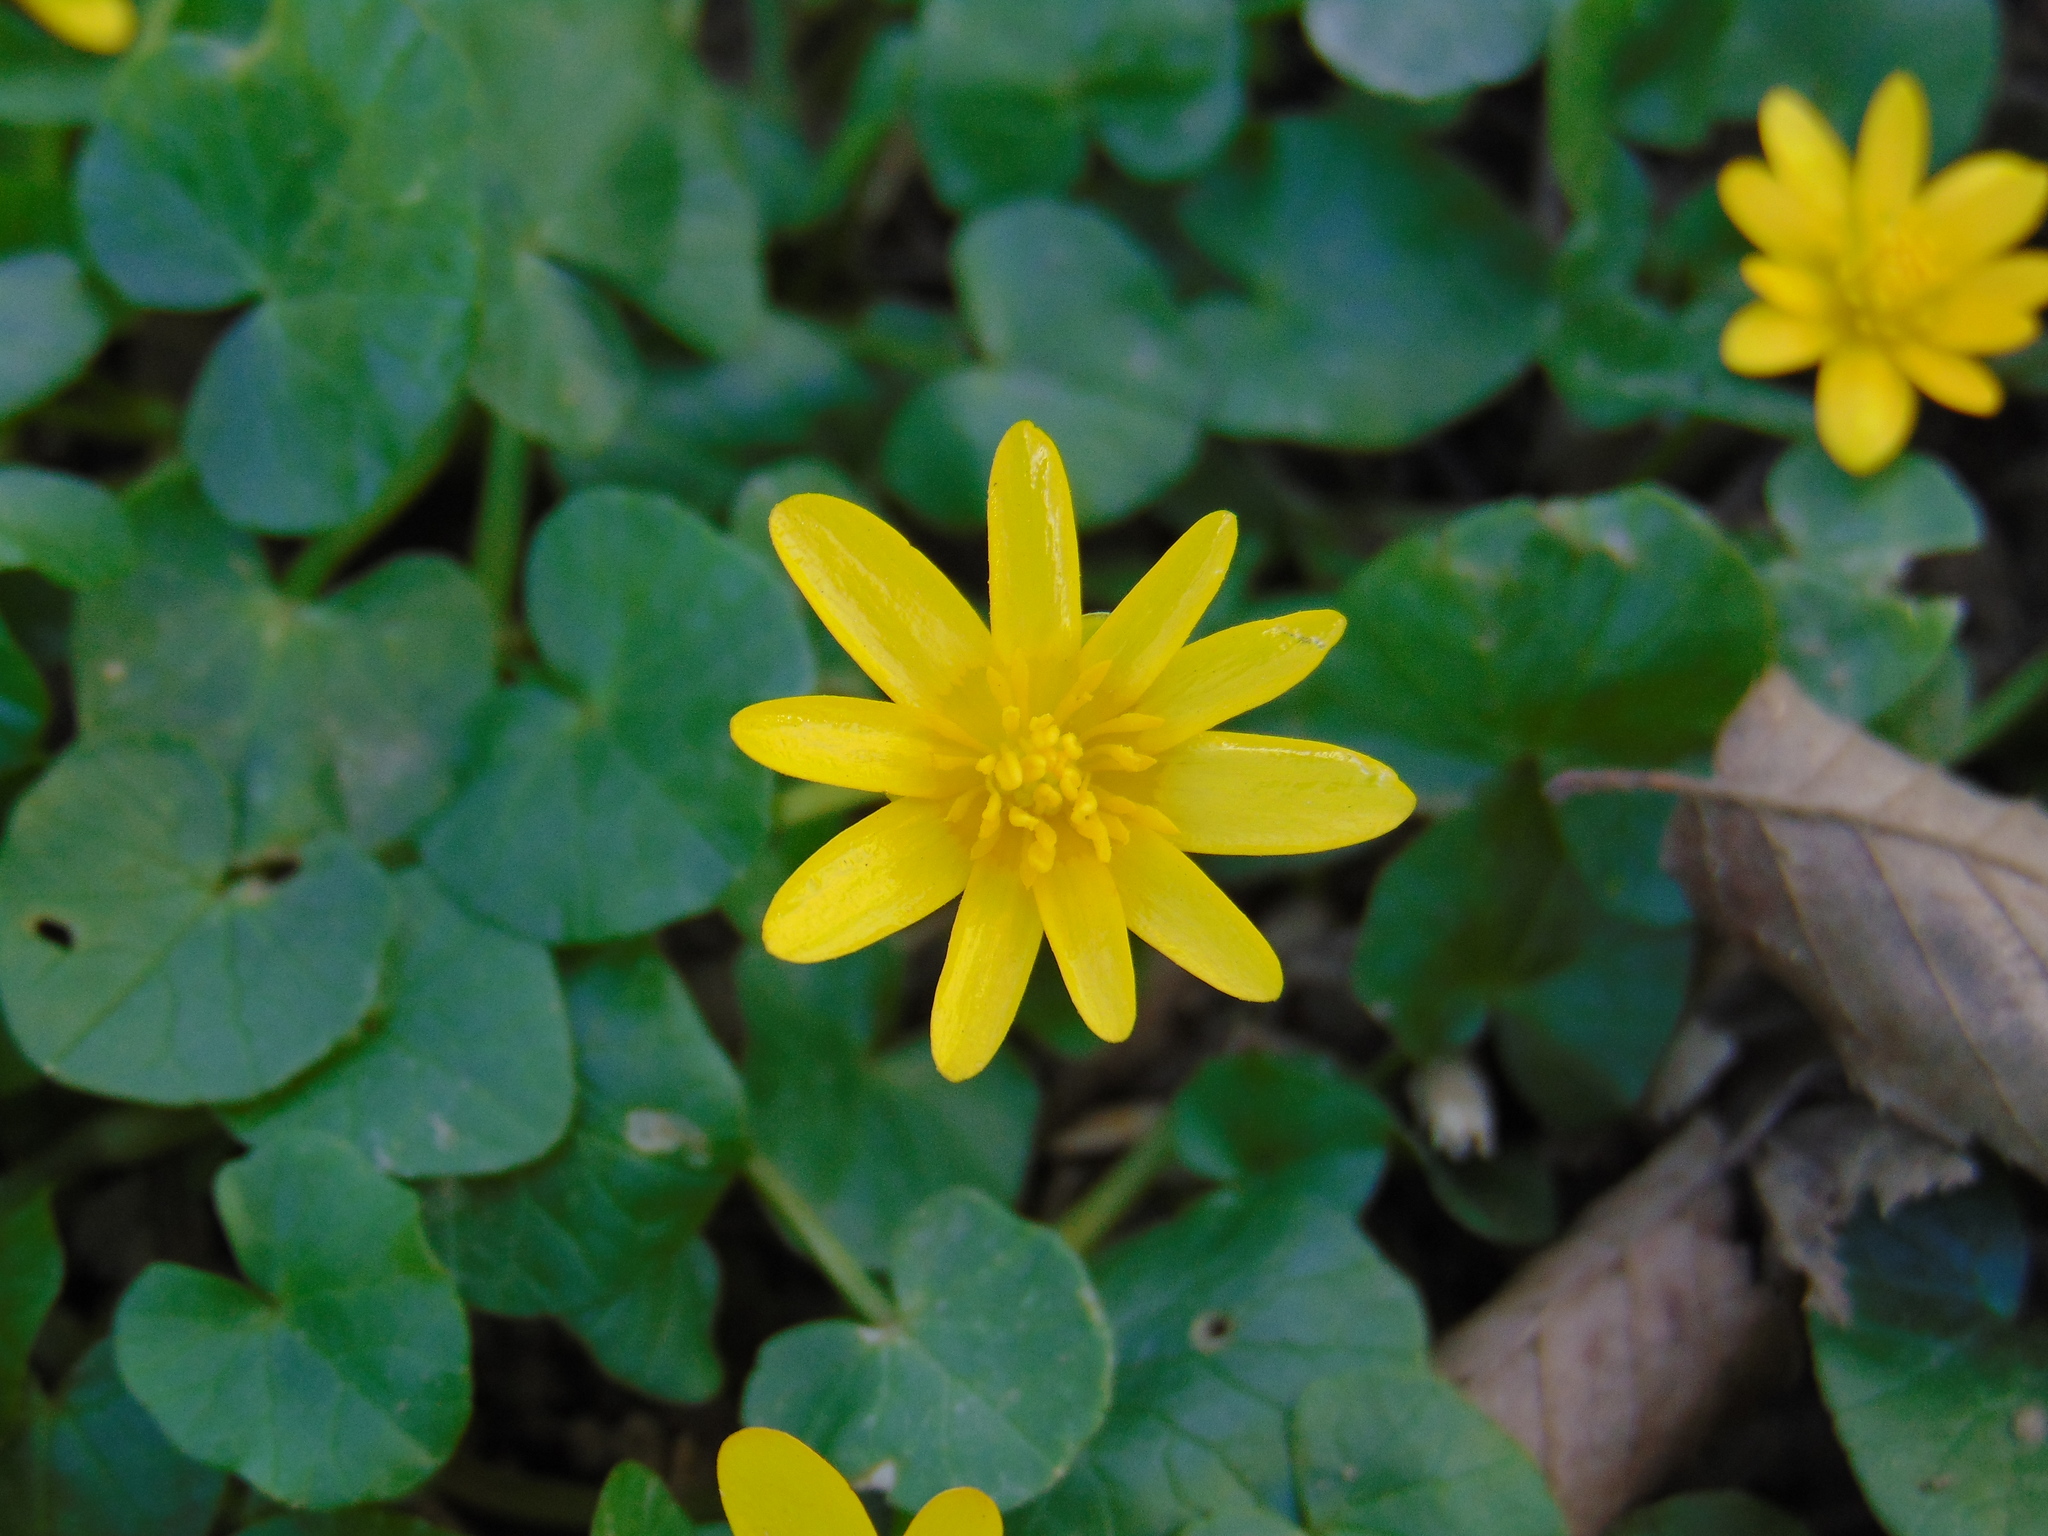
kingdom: Plantae
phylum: Tracheophyta
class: Magnoliopsida
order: Ranunculales
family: Ranunculaceae
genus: Ficaria
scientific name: Ficaria verna
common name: Lesser celandine
